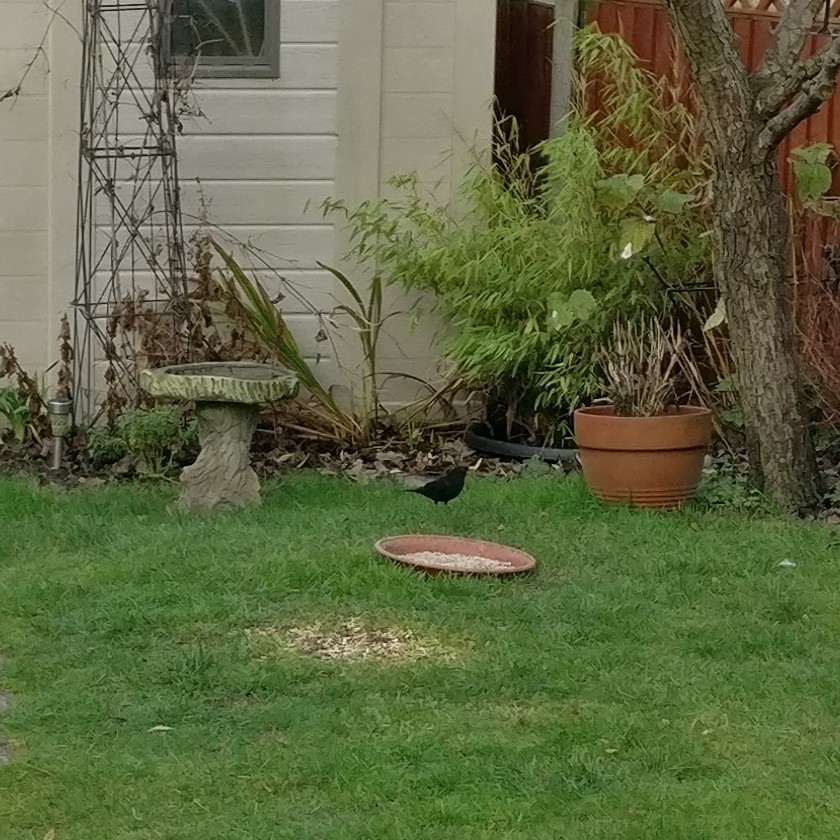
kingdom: Animalia
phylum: Chordata
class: Aves
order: Passeriformes
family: Turdidae
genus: Turdus
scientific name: Turdus merula
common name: Common blackbird
